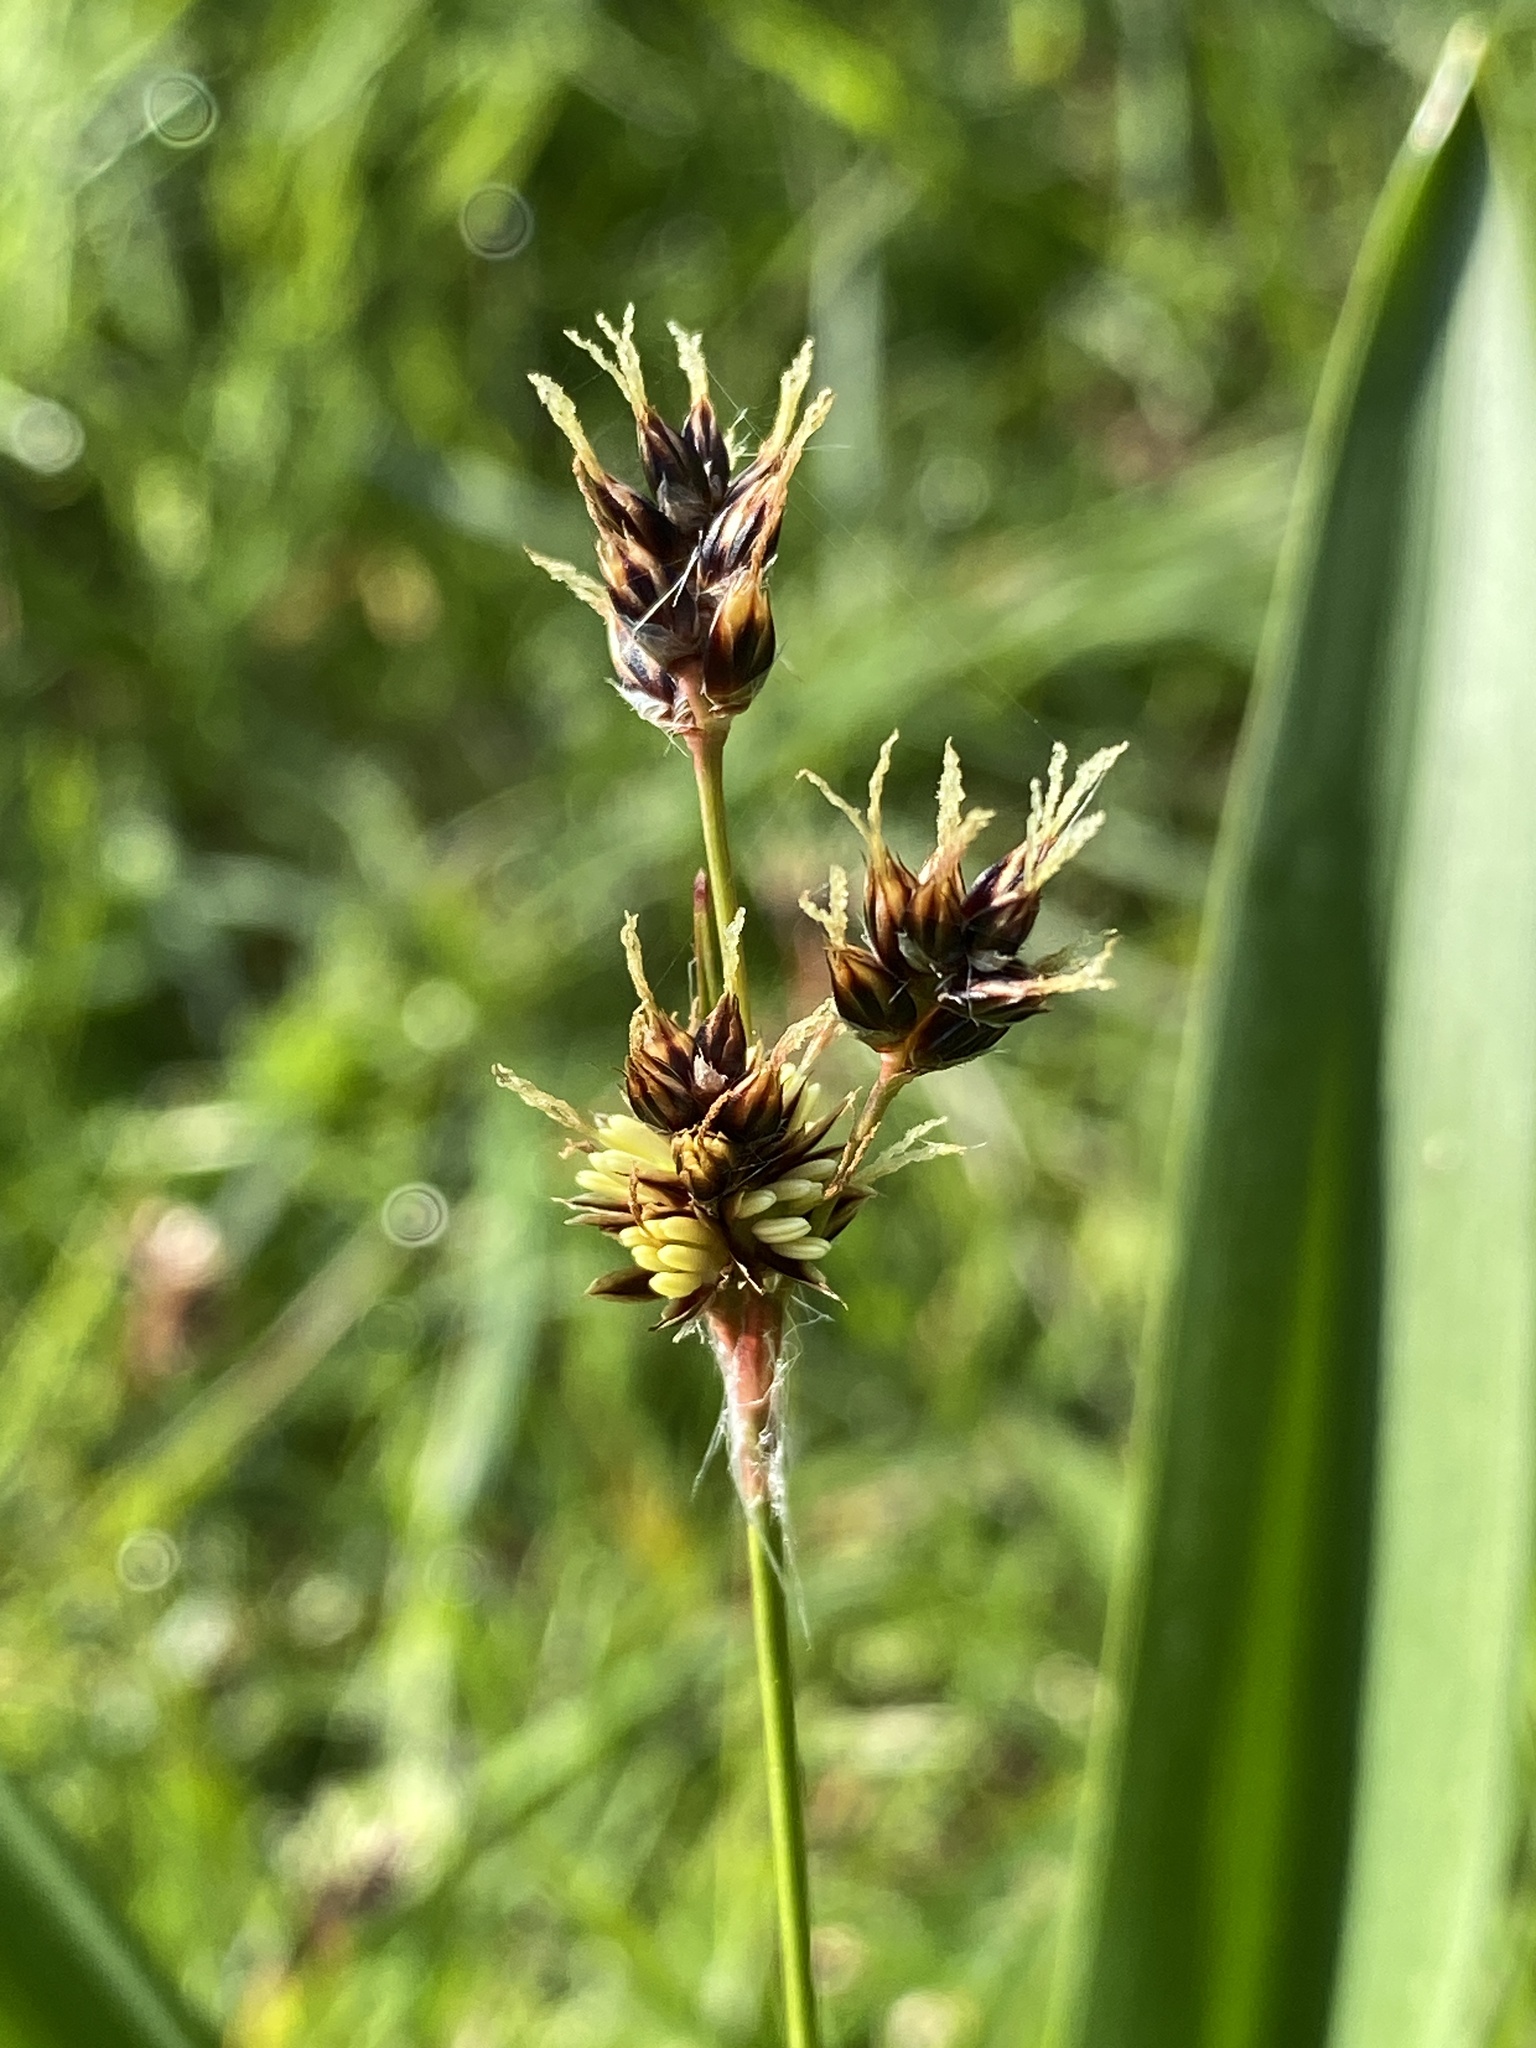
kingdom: Plantae
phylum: Tracheophyta
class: Liliopsida
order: Poales
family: Juncaceae
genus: Luzula
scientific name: Luzula campestris
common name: Field wood-rush
